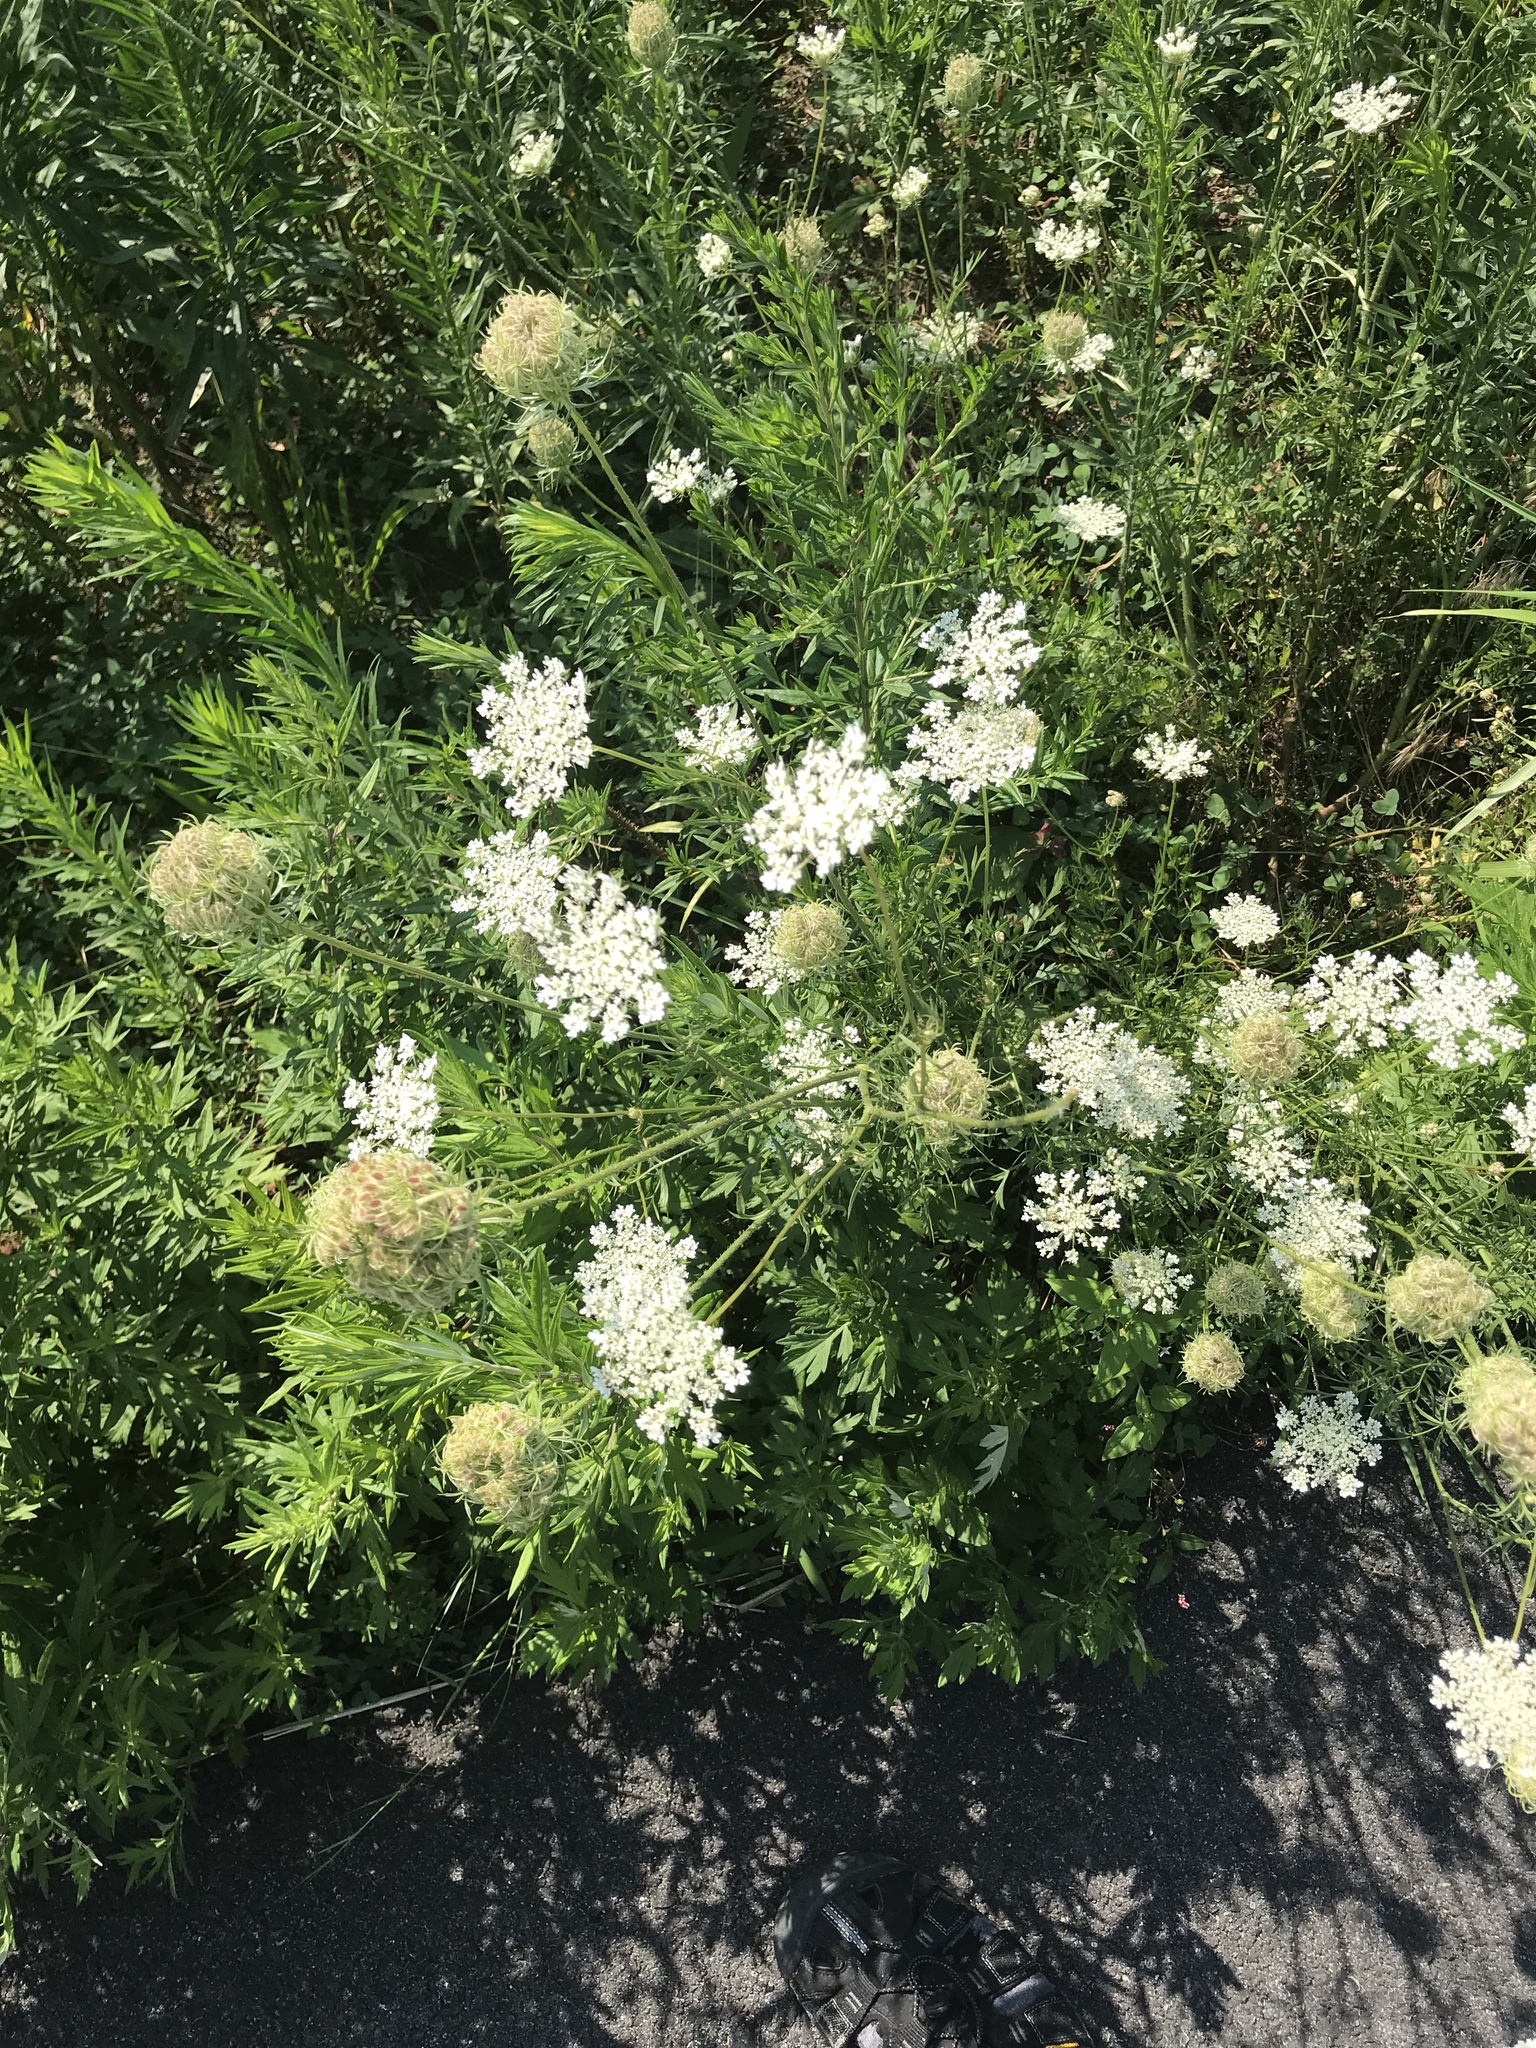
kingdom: Plantae
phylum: Tracheophyta
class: Magnoliopsida
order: Apiales
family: Apiaceae
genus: Daucus
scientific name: Daucus carota
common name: Wild carrot
